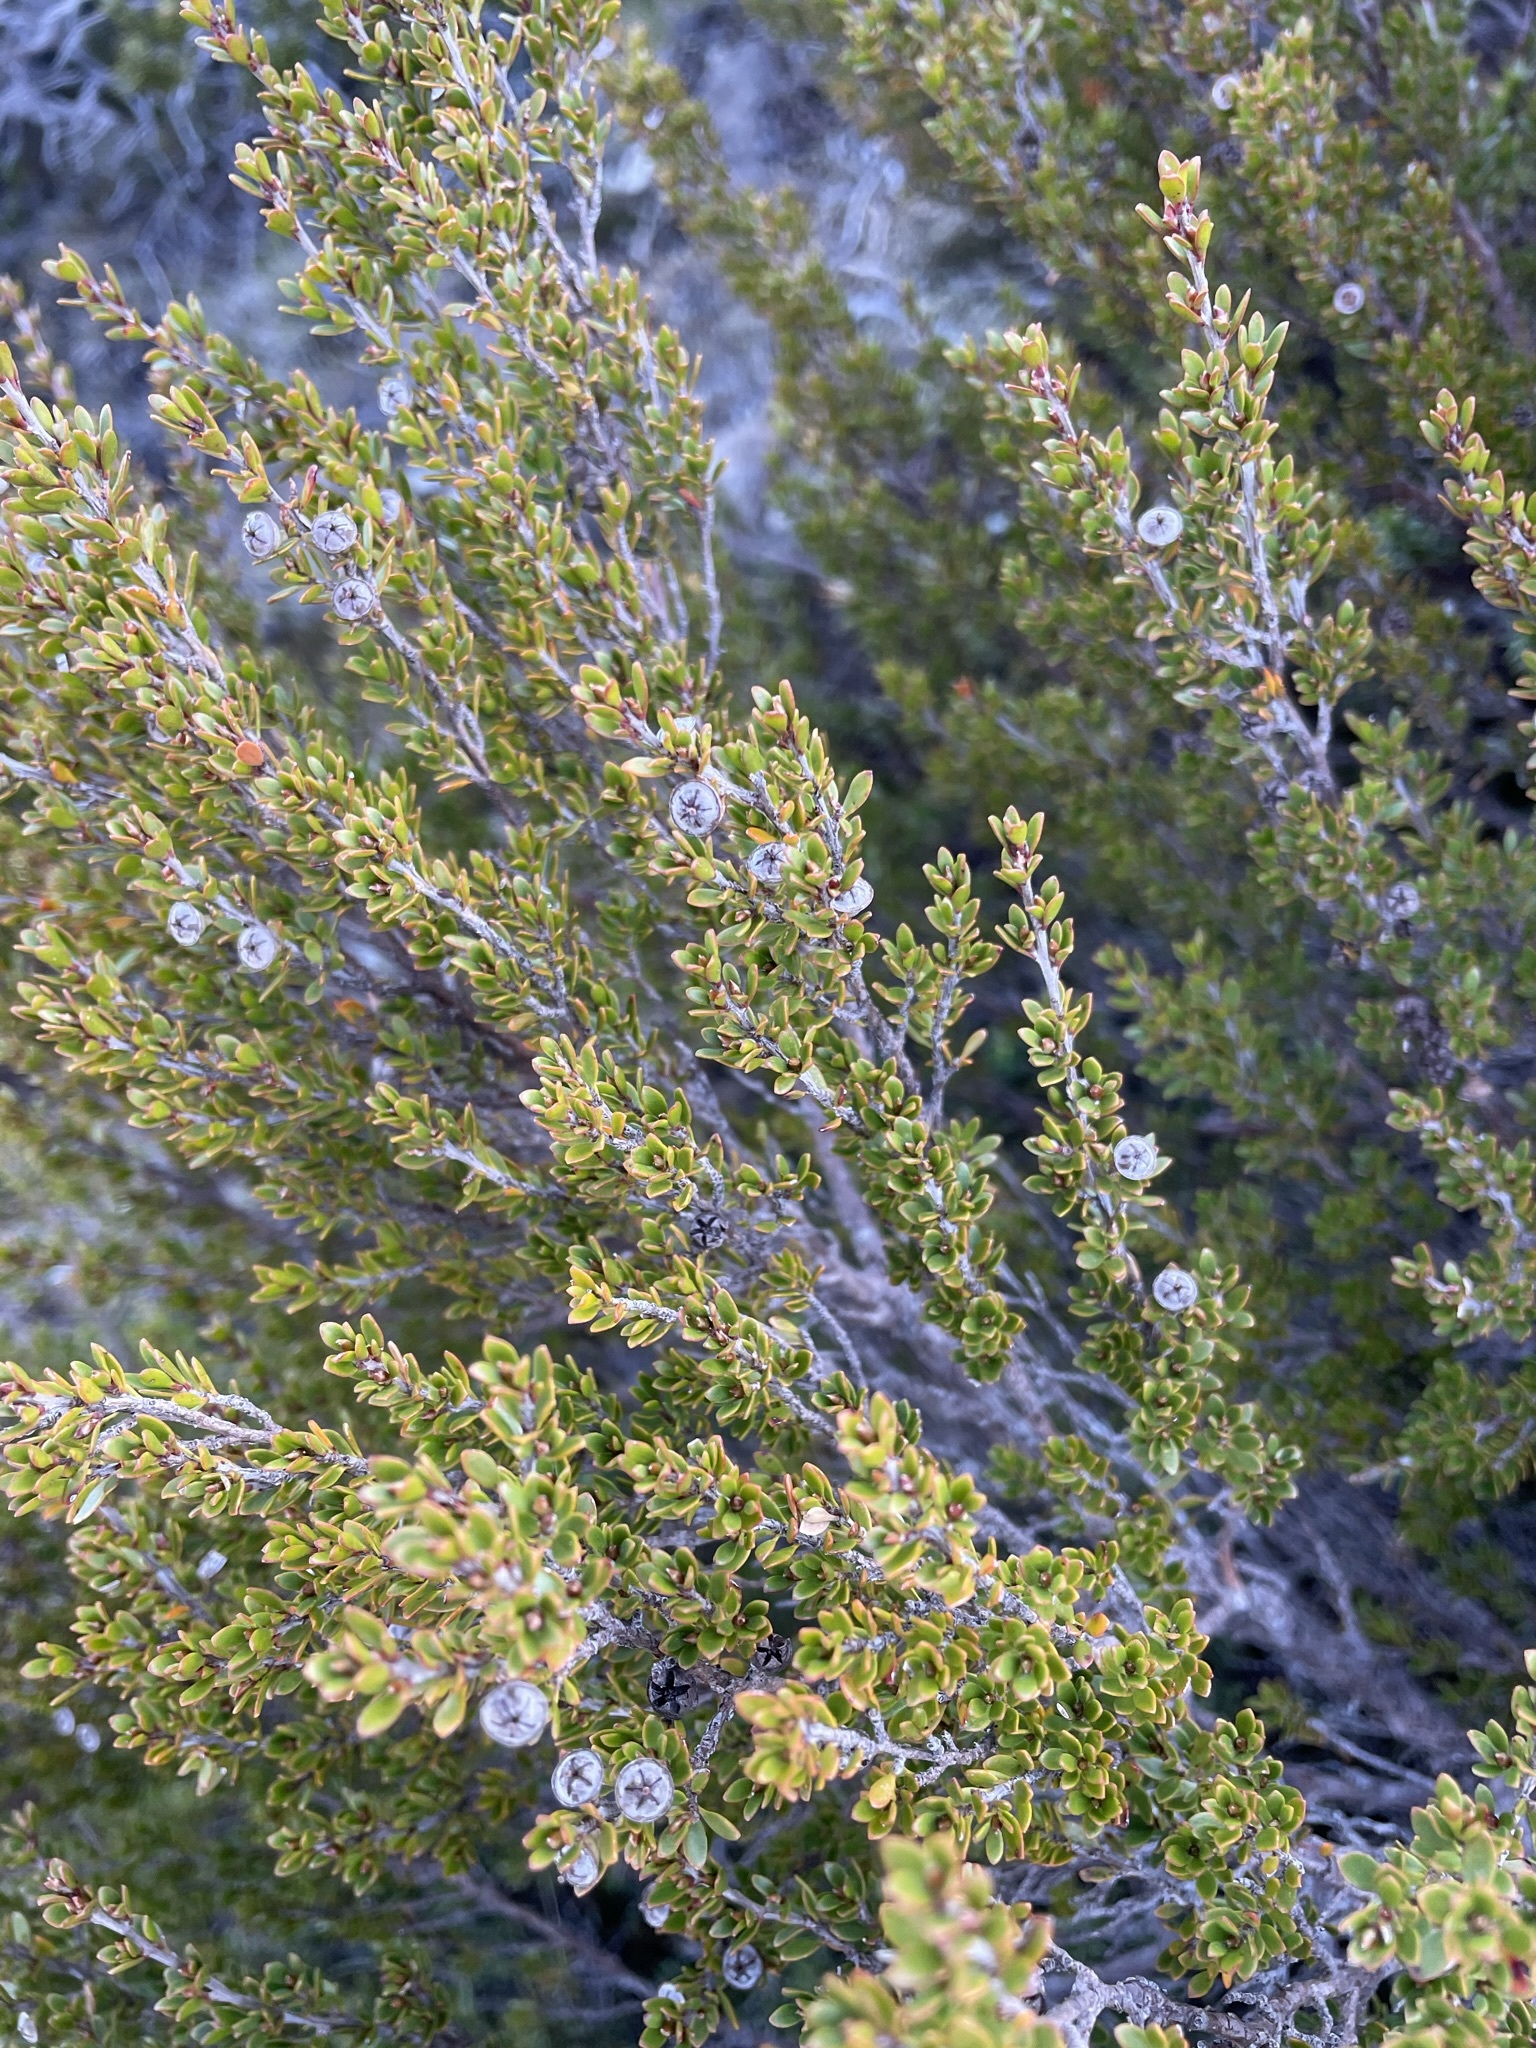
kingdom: Plantae
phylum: Tracheophyta
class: Magnoliopsida
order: Myrtales
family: Myrtaceae
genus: Leptospermum
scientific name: Leptospermum rupestre
